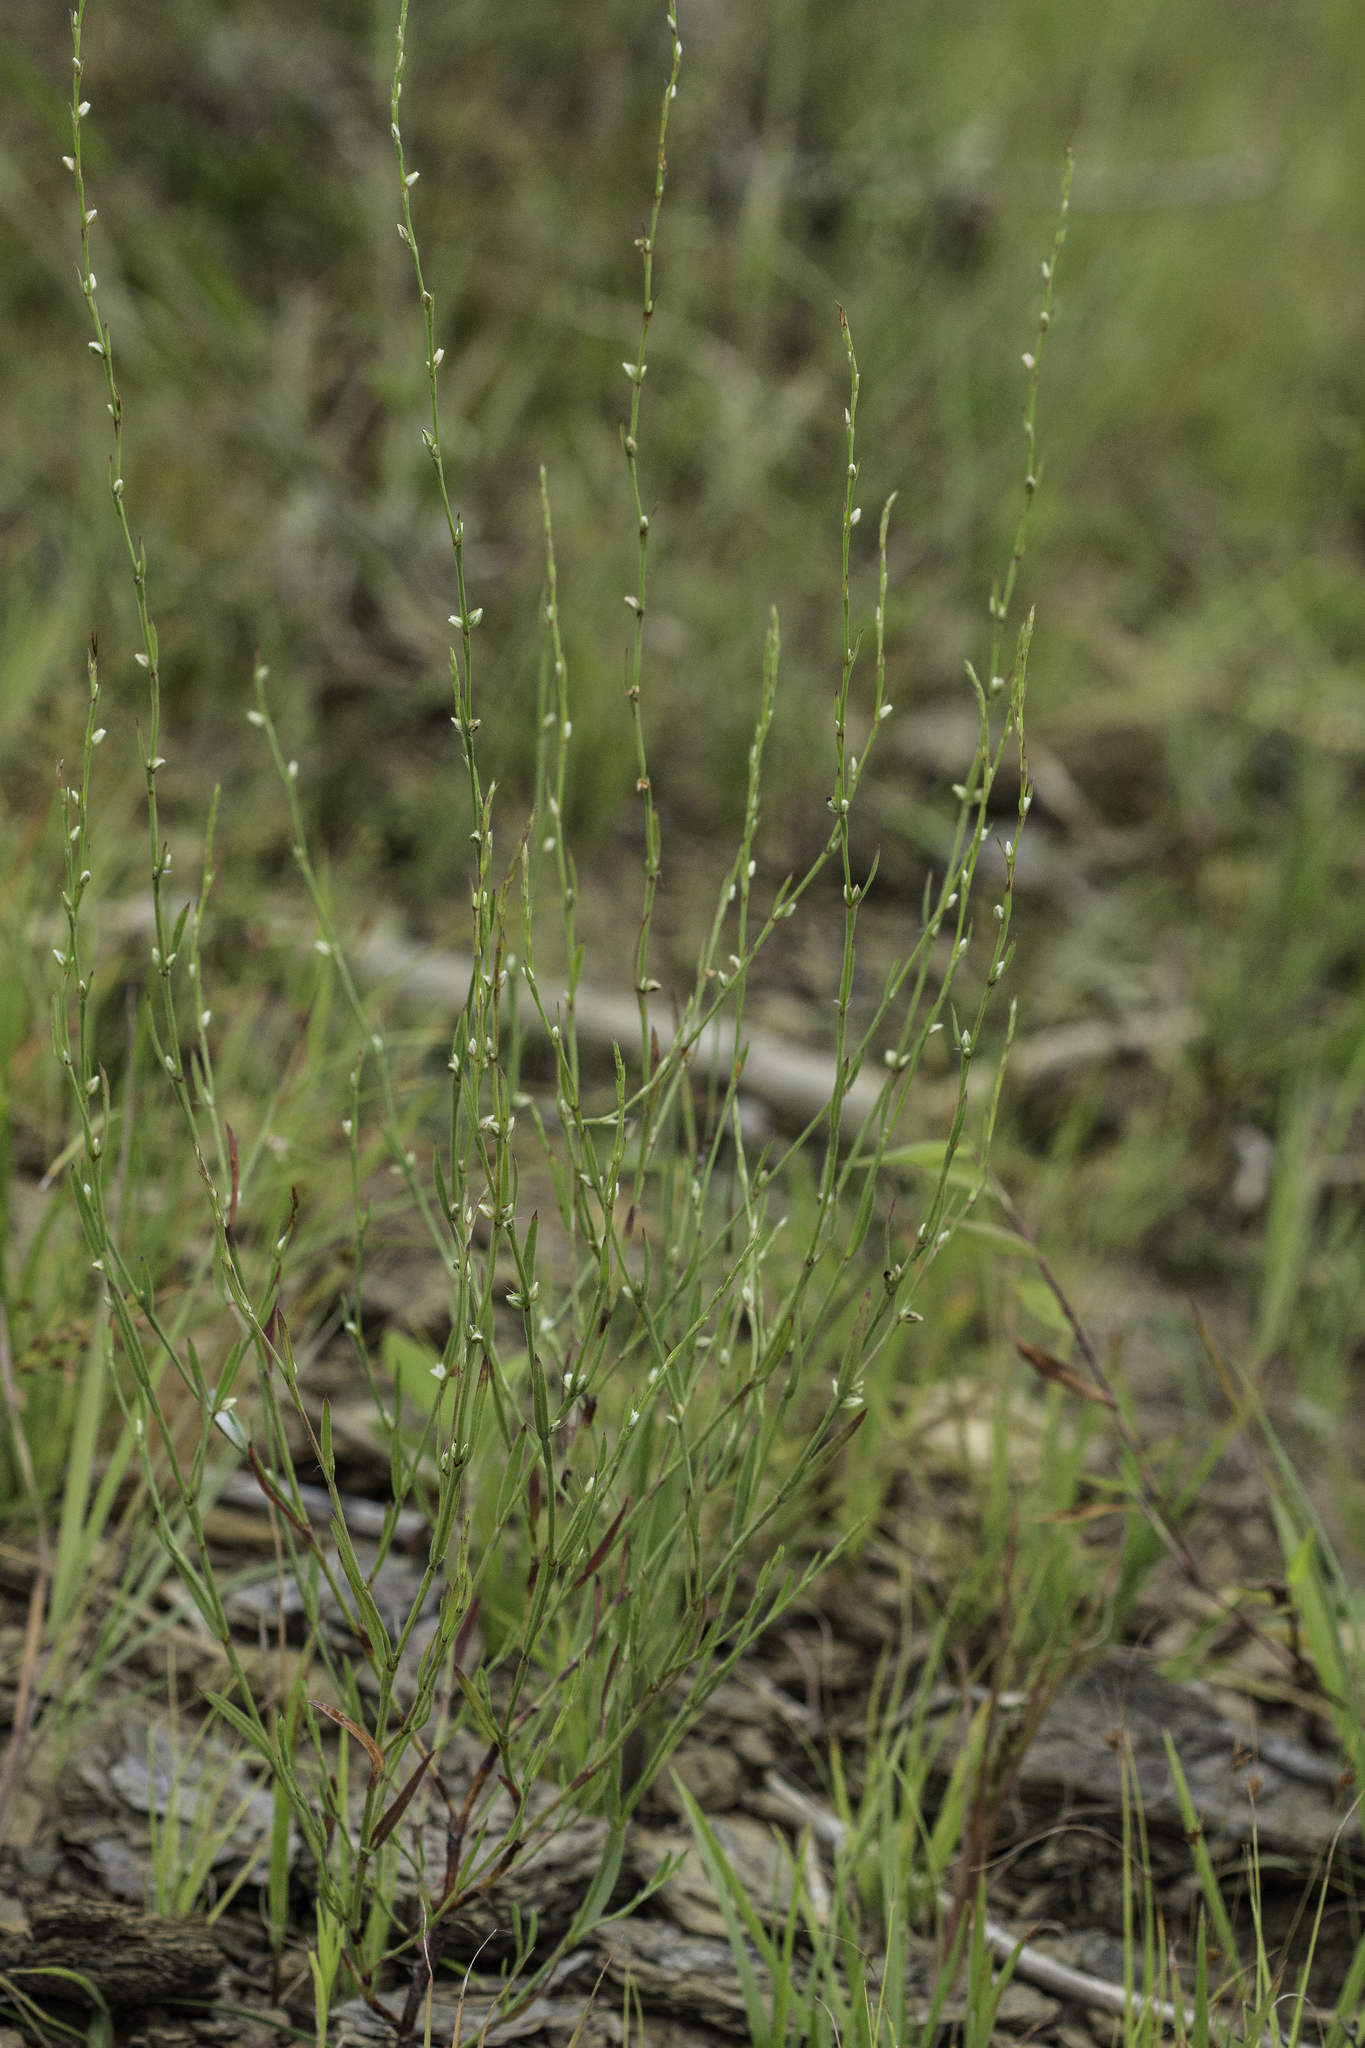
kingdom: Plantae
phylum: Tracheophyta
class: Magnoliopsida
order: Caryophyllales
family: Polygonaceae
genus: Polygonum
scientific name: Polygonum tenue
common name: Pleat-leaved knotweed
